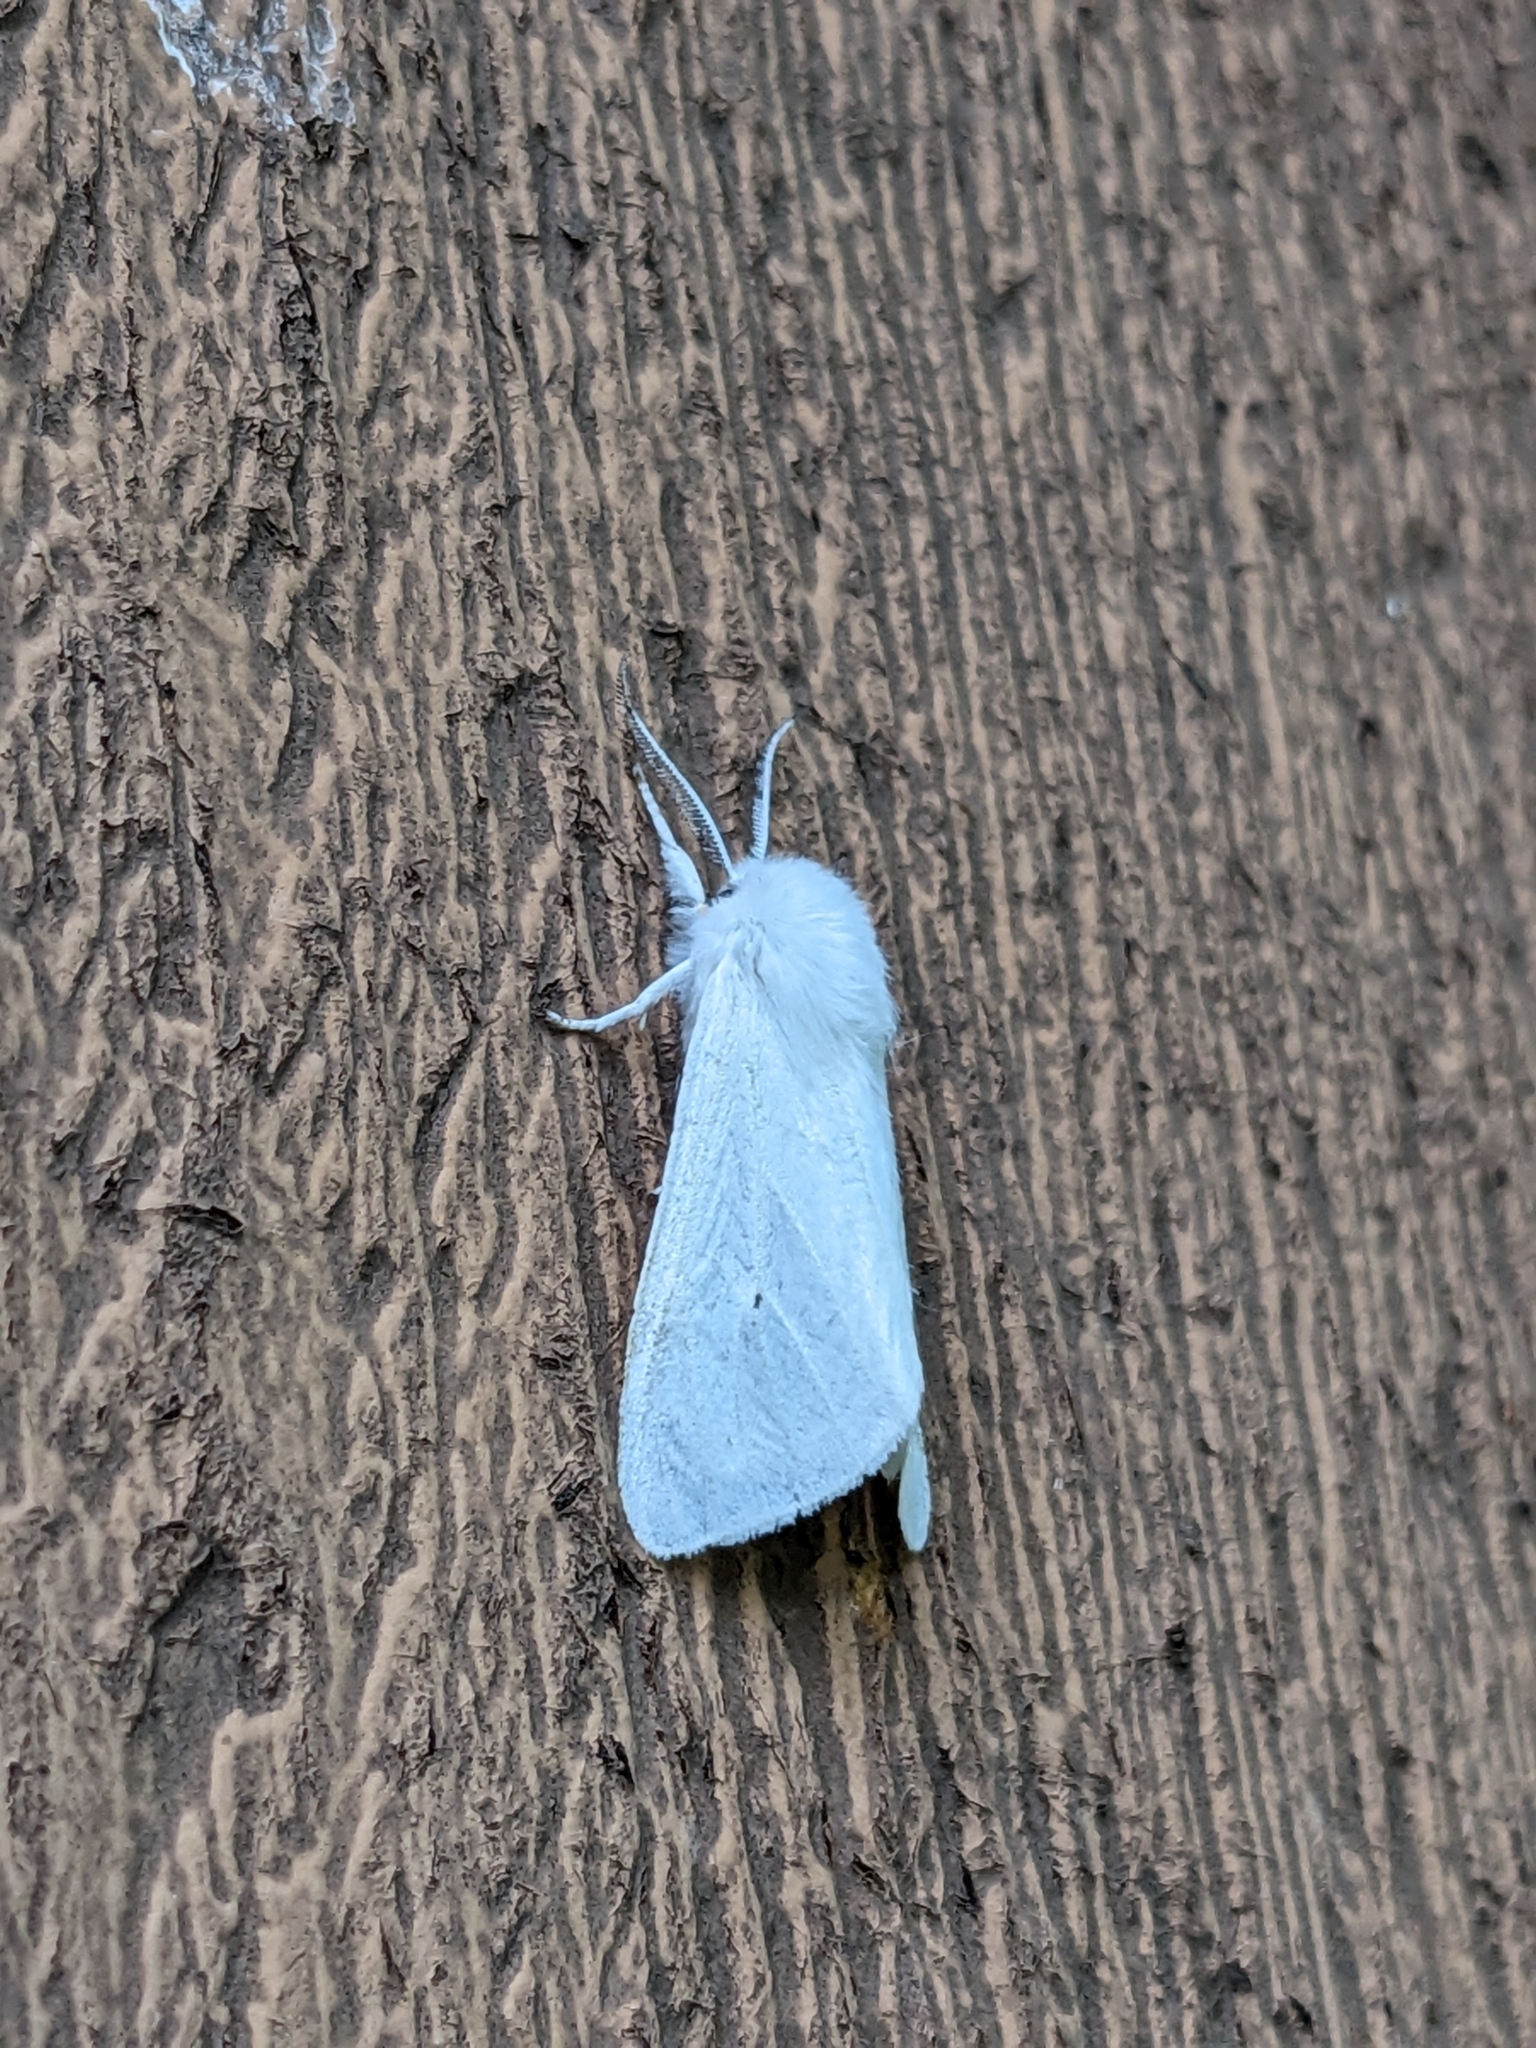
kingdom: Animalia
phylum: Arthropoda
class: Insecta
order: Lepidoptera
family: Erebidae
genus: Spilosoma
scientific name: Spilosoma virginica
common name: Virginia tiger moth
